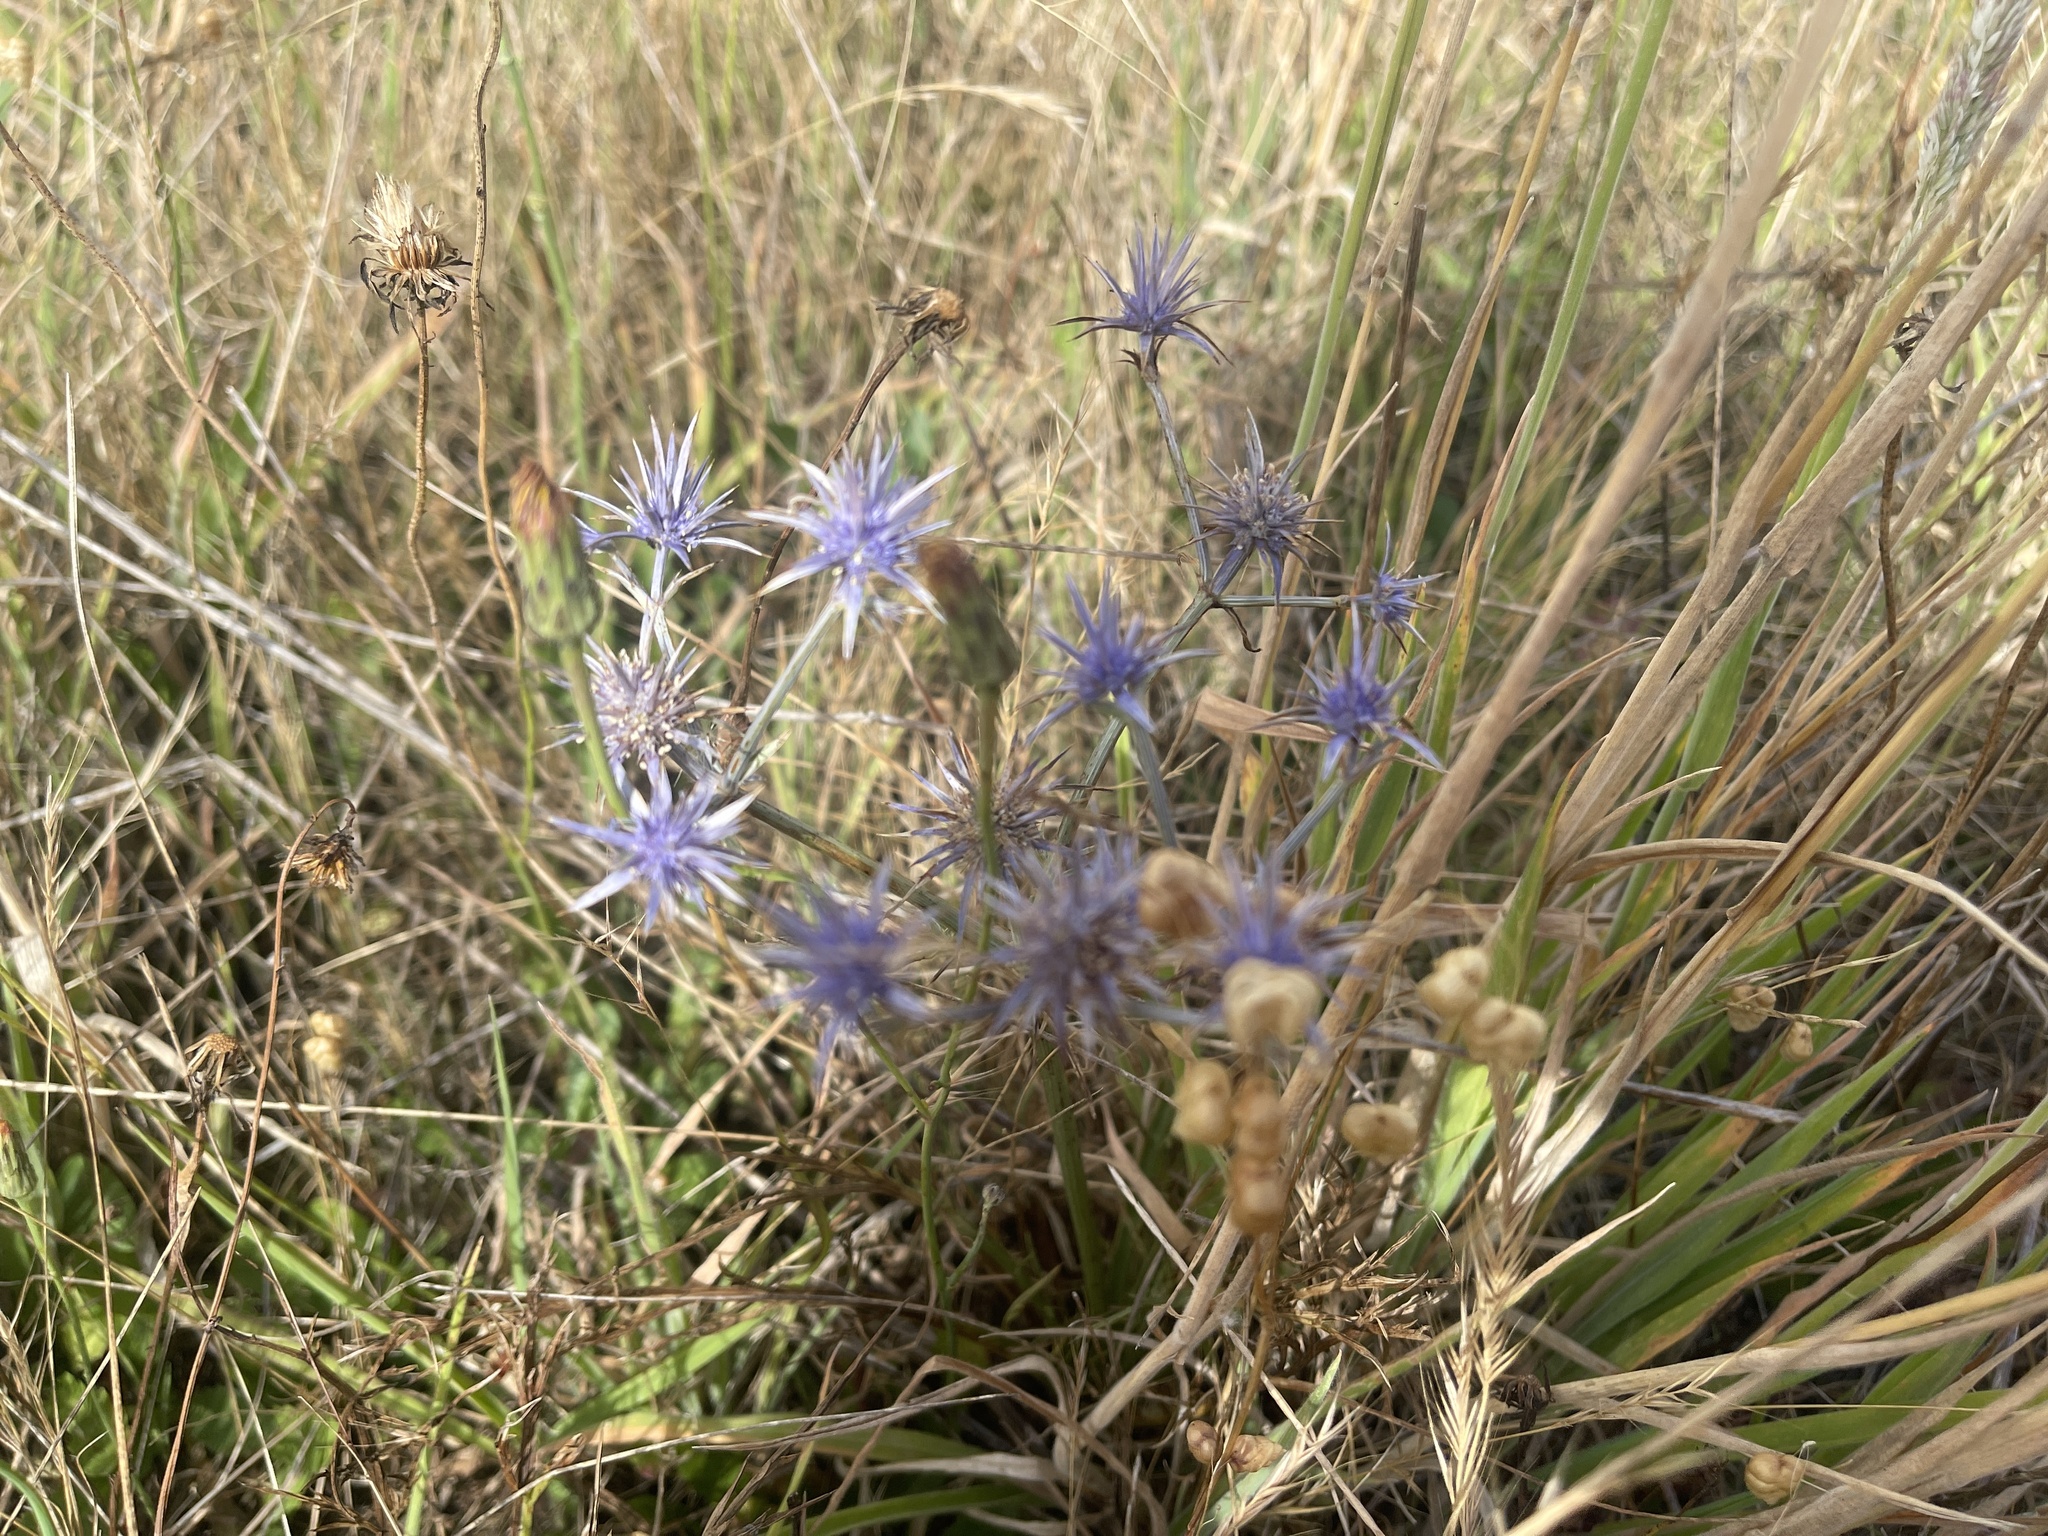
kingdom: Plantae
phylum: Tracheophyta
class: Magnoliopsida
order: Apiales
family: Apiaceae
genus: Eryngium
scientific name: Eryngium ovinum
